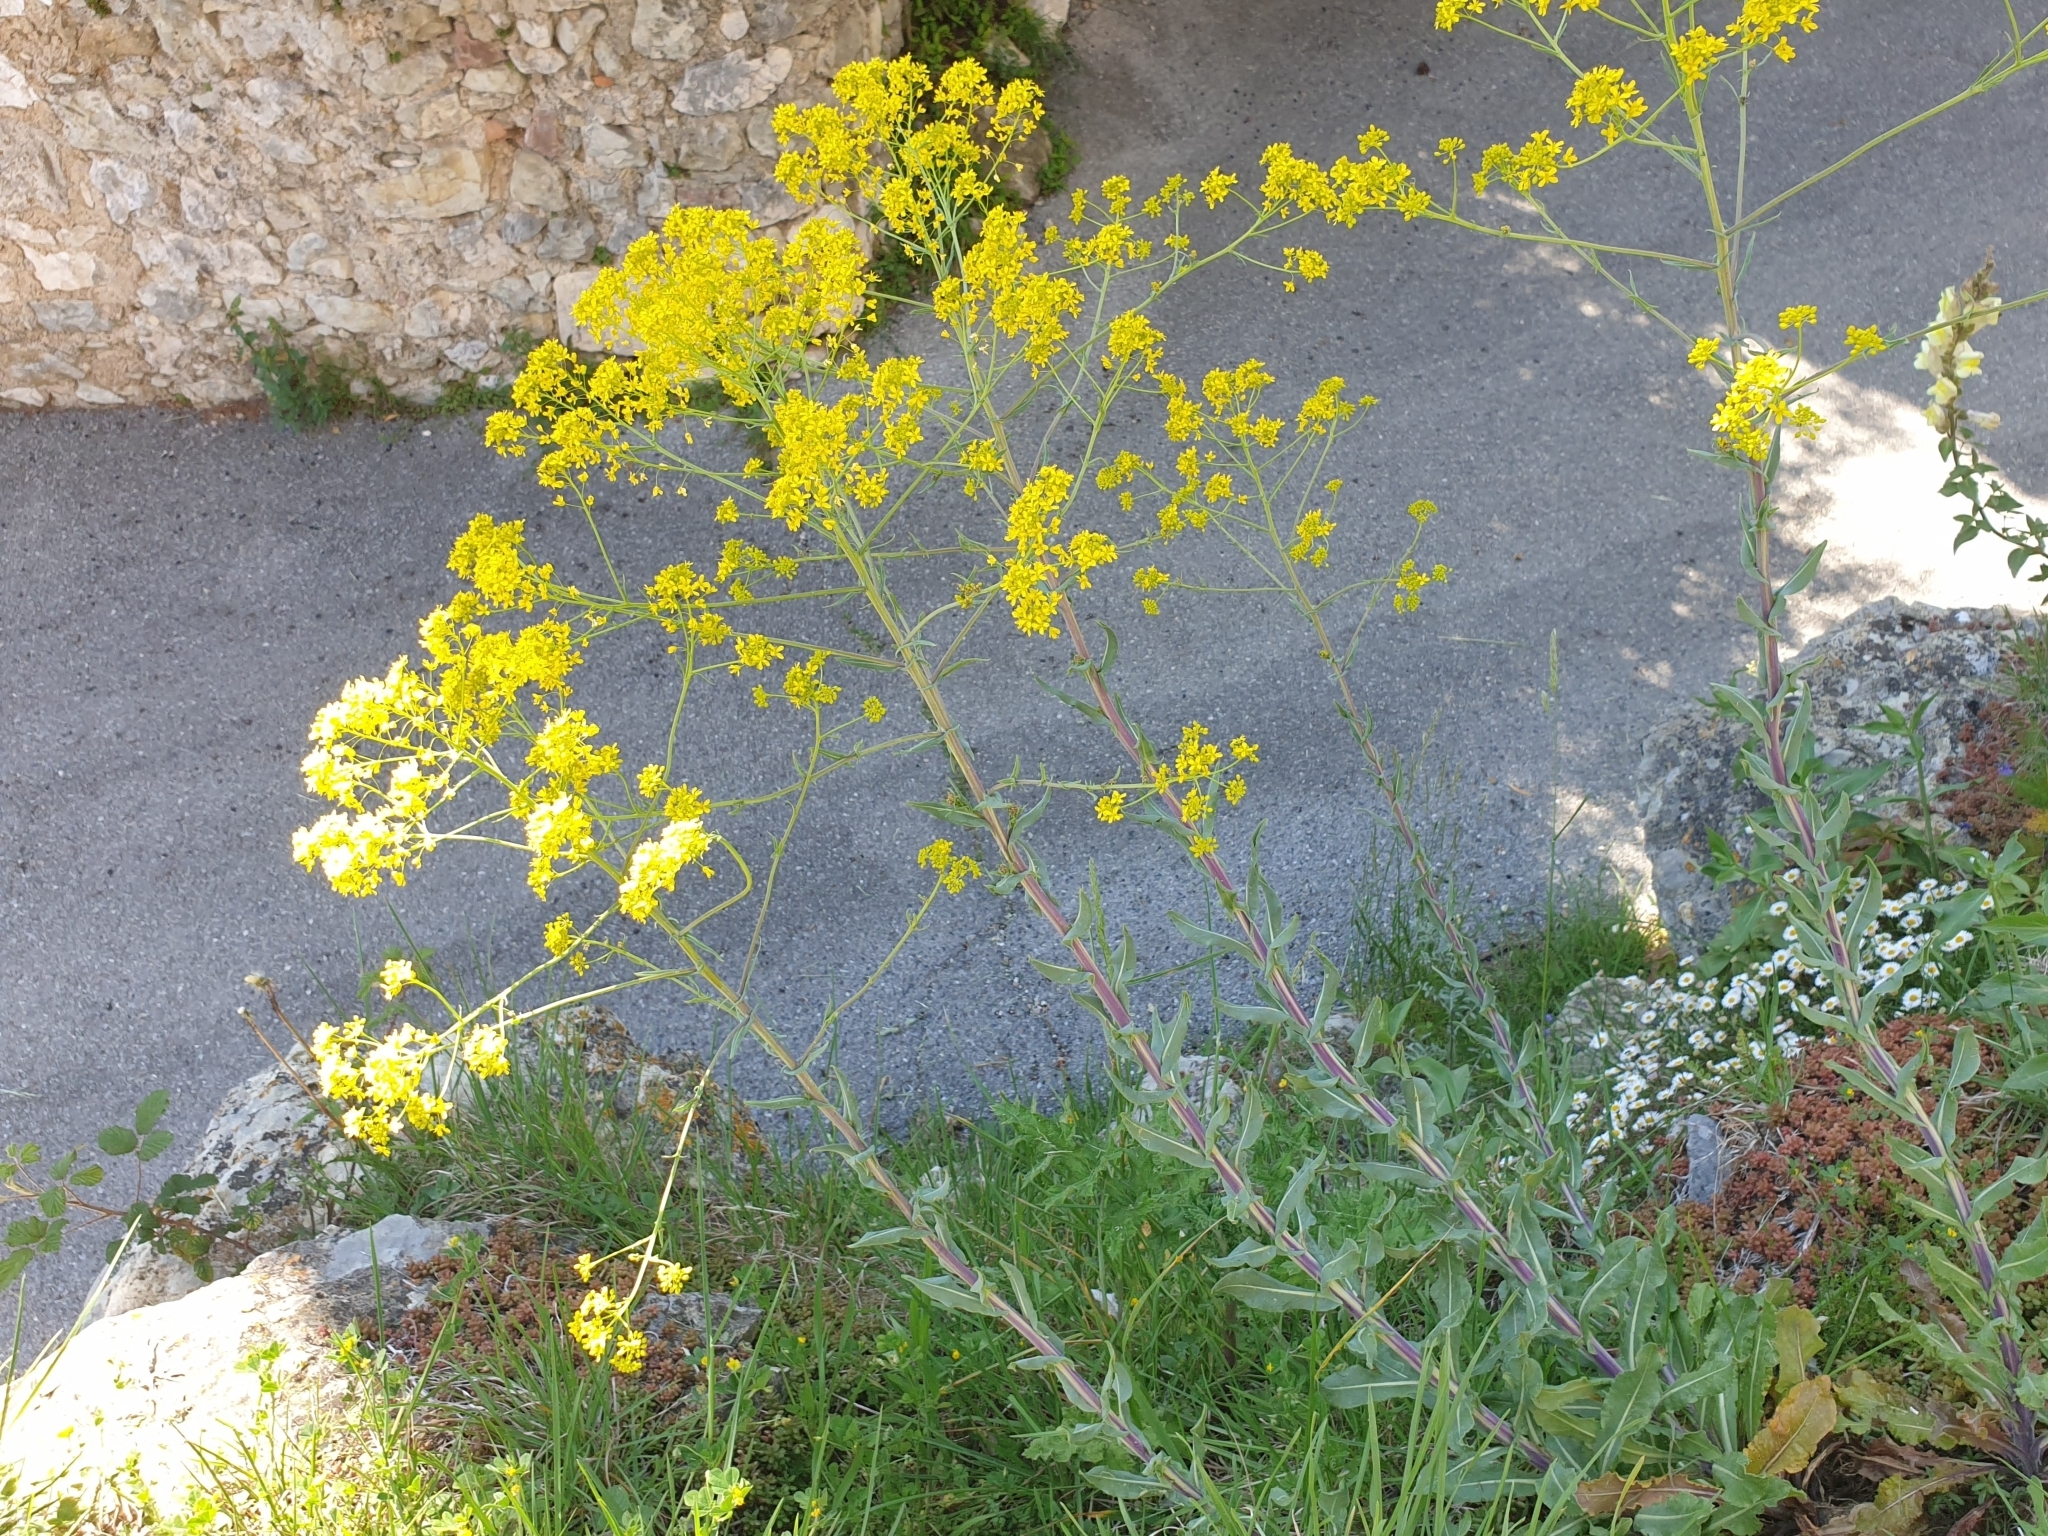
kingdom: Plantae
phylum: Tracheophyta
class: Magnoliopsida
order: Brassicales
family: Brassicaceae
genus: Isatis
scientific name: Isatis tinctoria
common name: Woad
